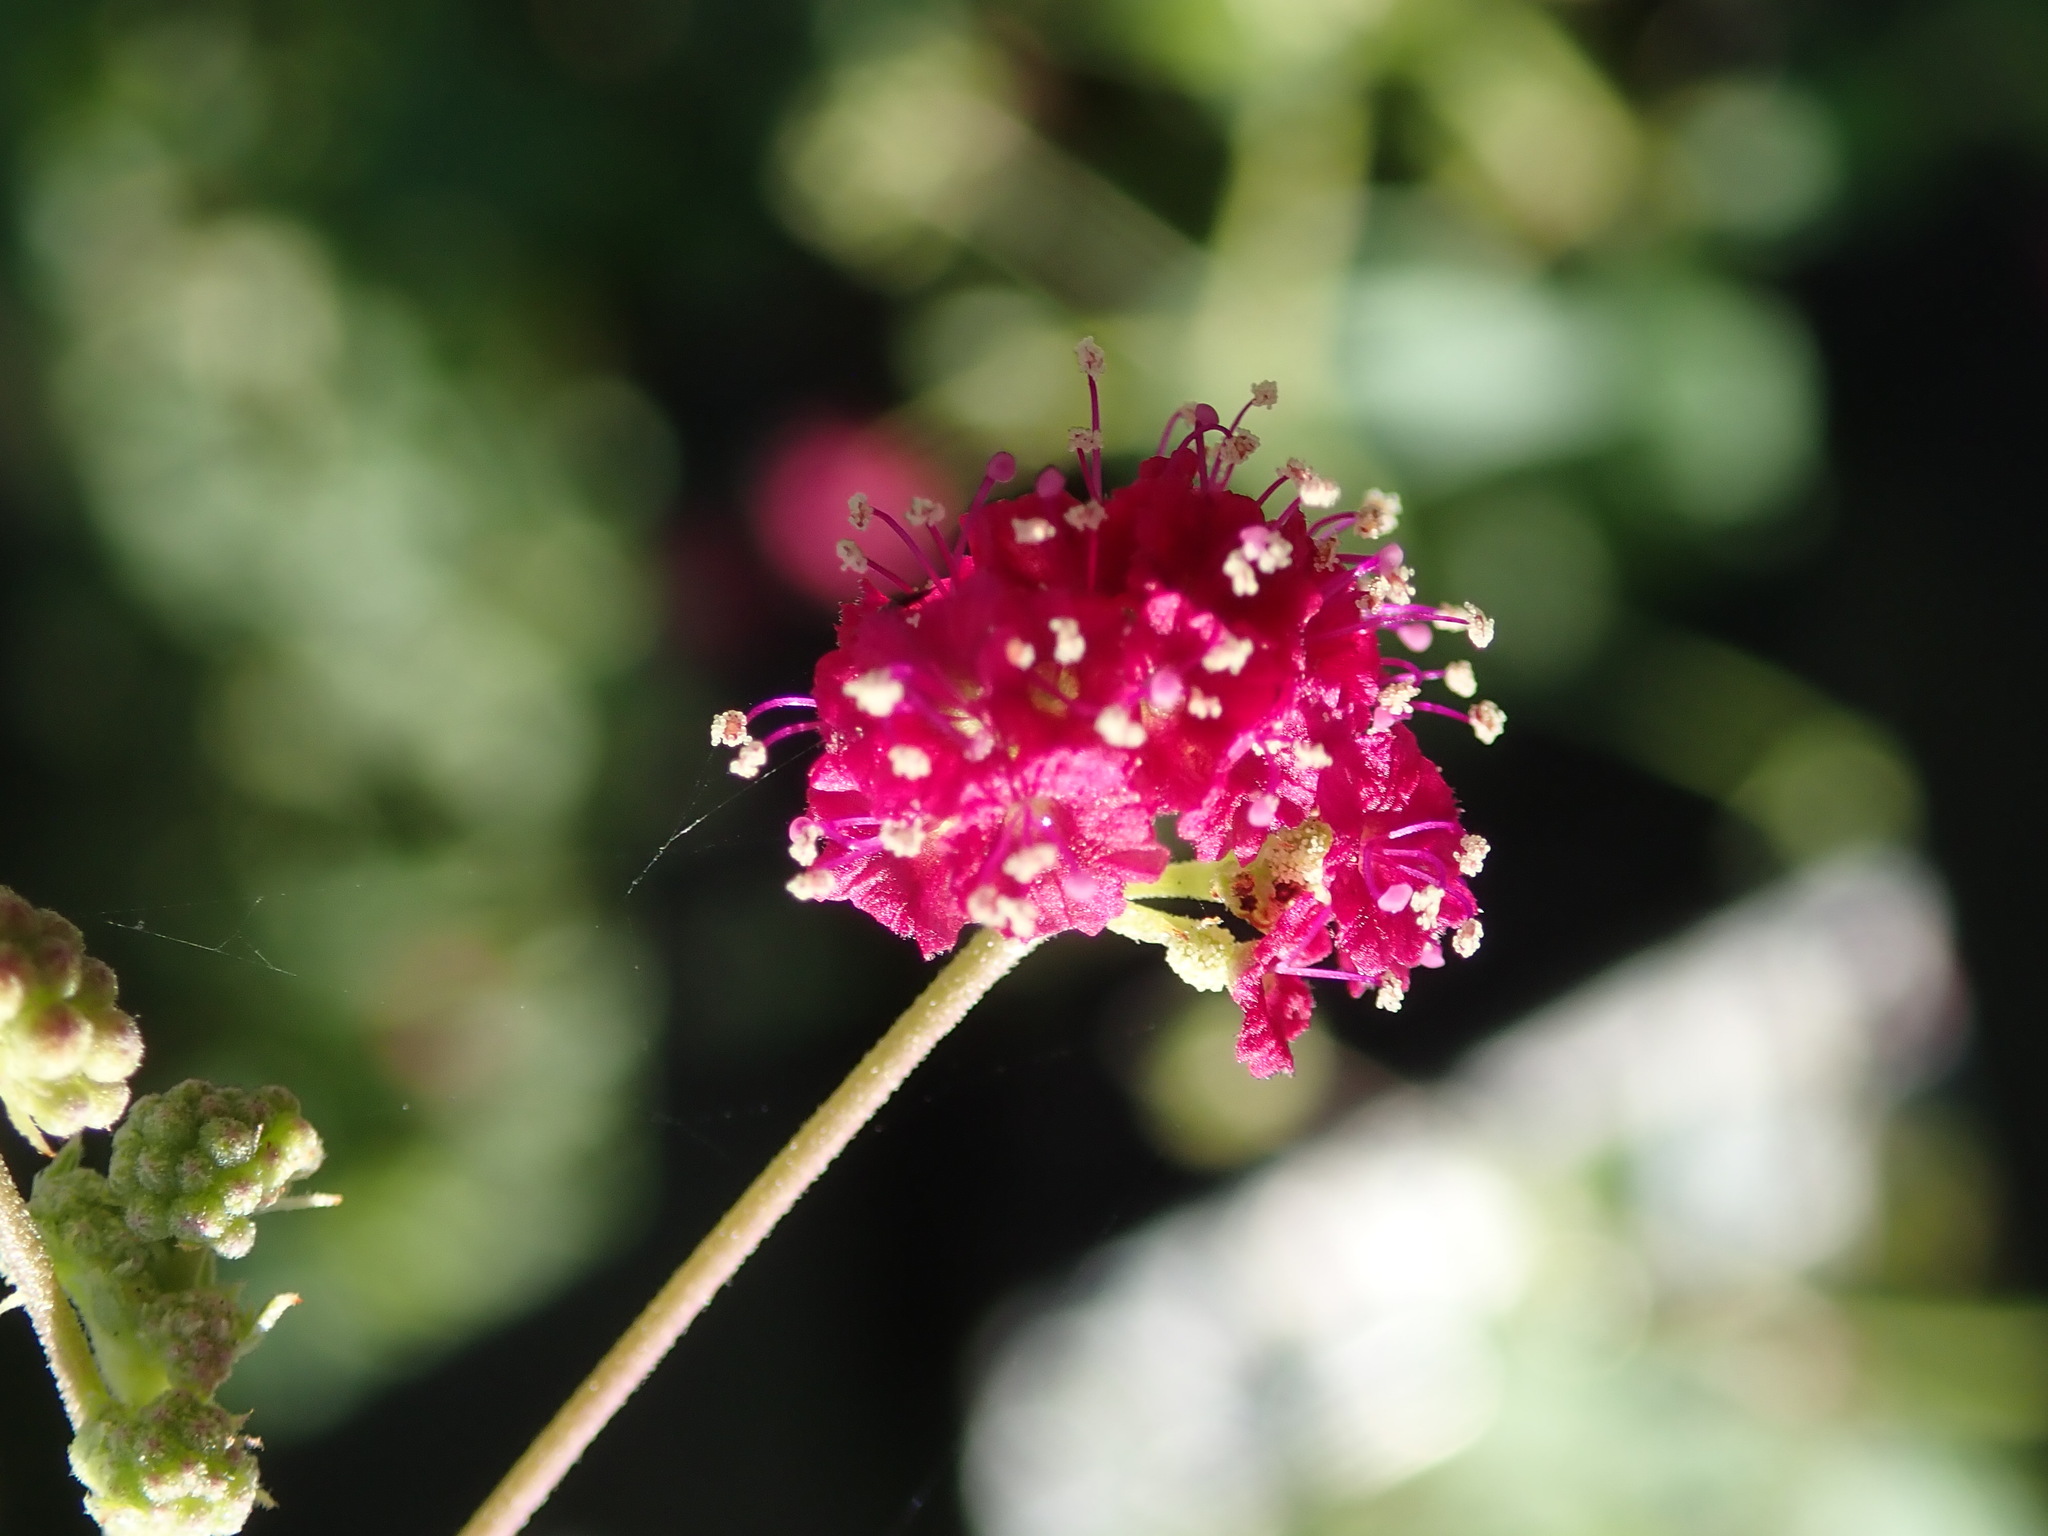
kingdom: Plantae
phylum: Tracheophyta
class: Magnoliopsida
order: Caryophyllales
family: Nyctaginaceae
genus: Boerhavia
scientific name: Boerhavia coccinea
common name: Scarlet spiderling
